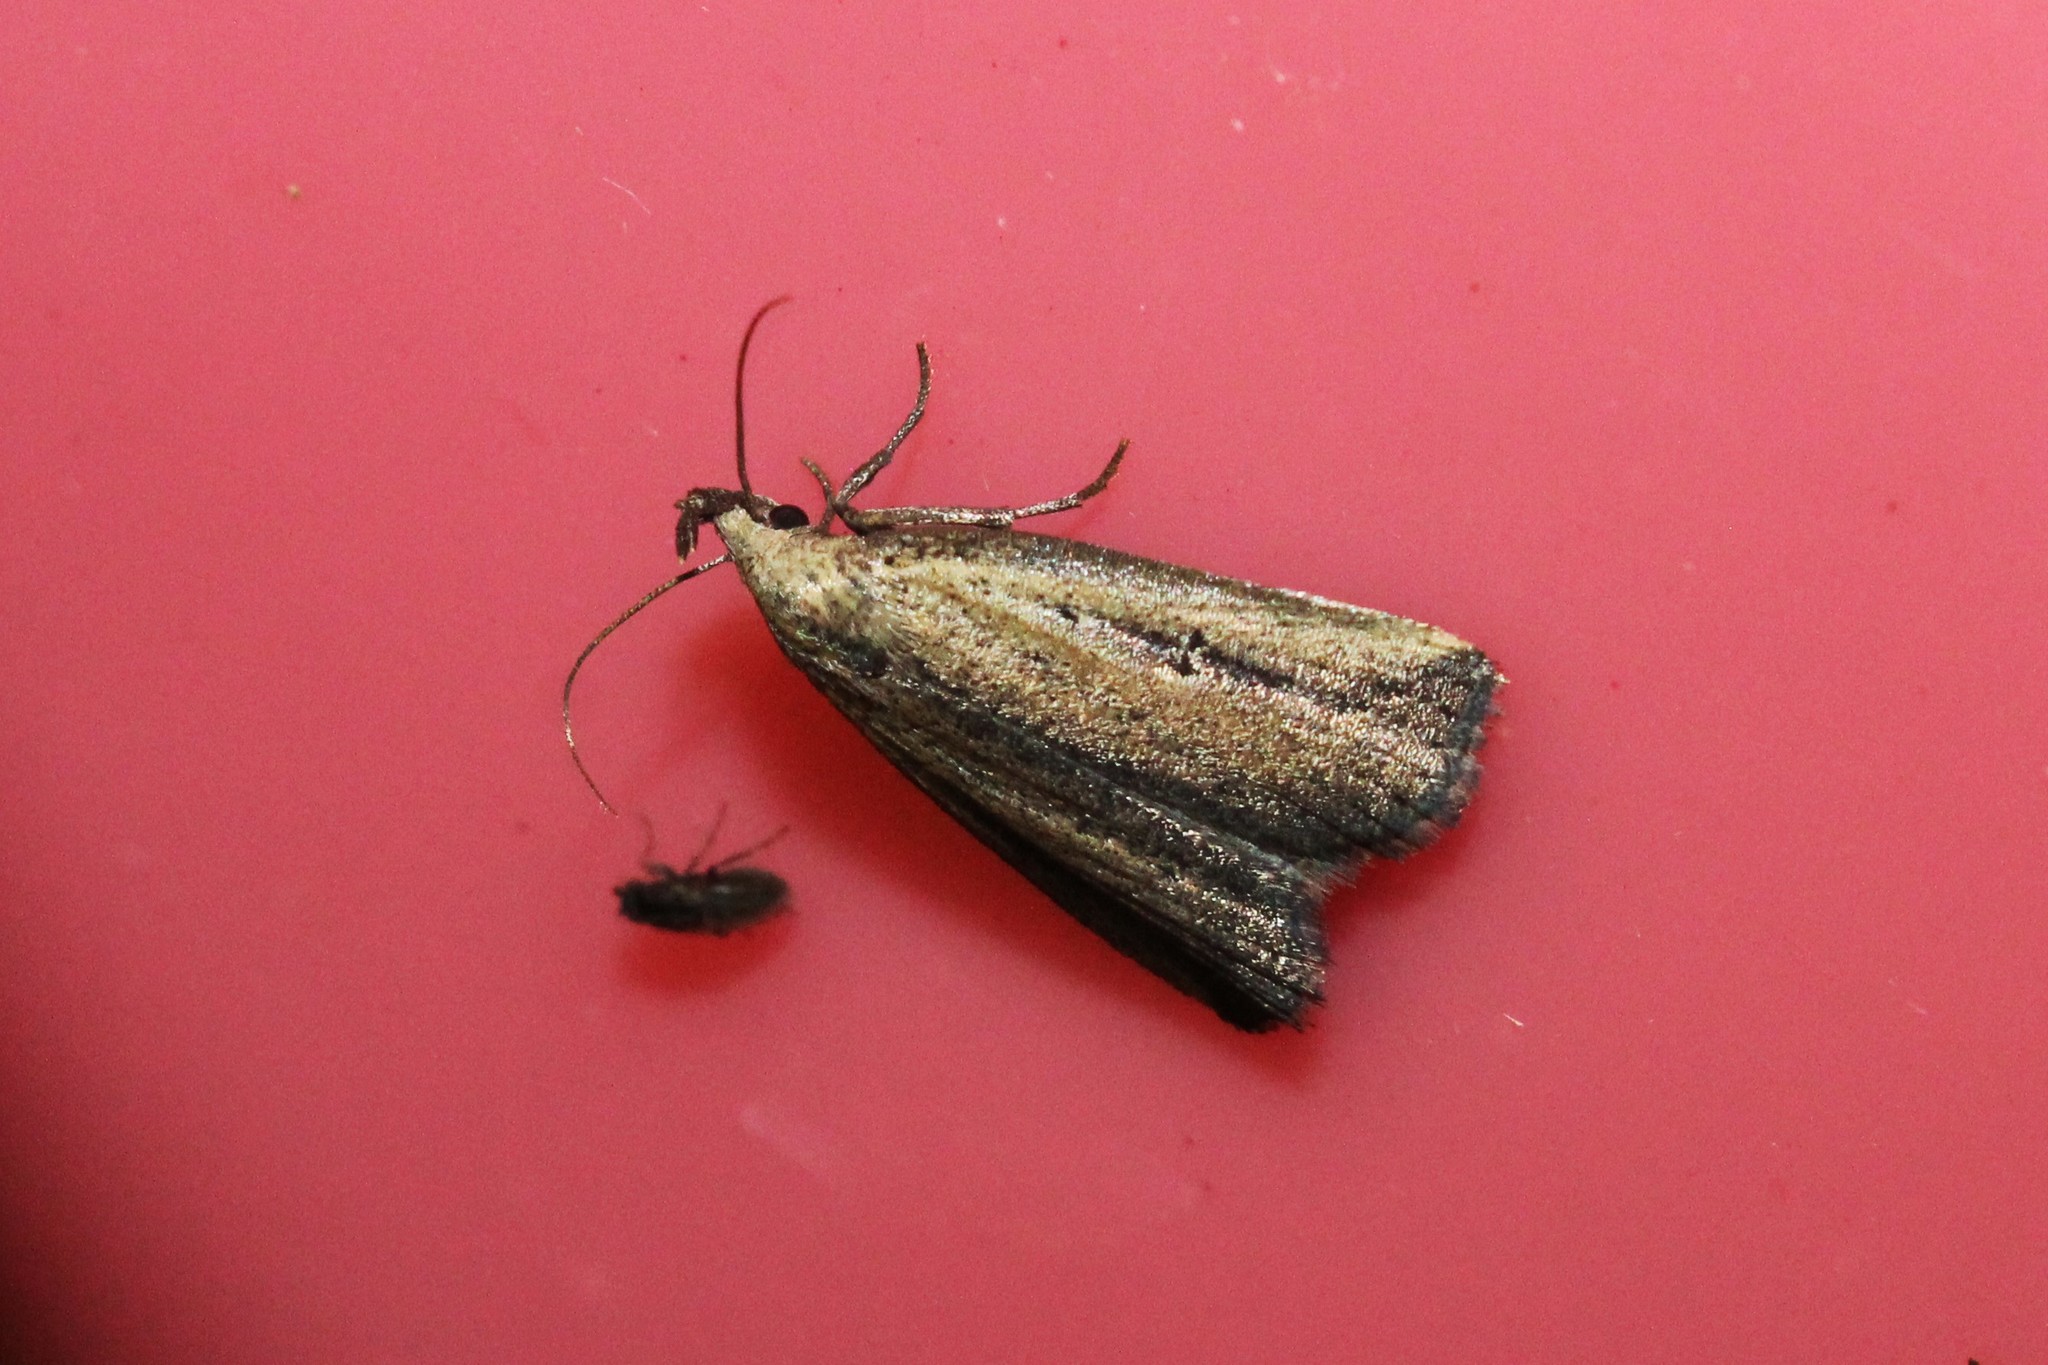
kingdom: Animalia
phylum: Arthropoda
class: Insecta
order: Lepidoptera
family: Erebidae
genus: Macrochilo
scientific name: Macrochilo orciferalis
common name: Bronzy owlet
